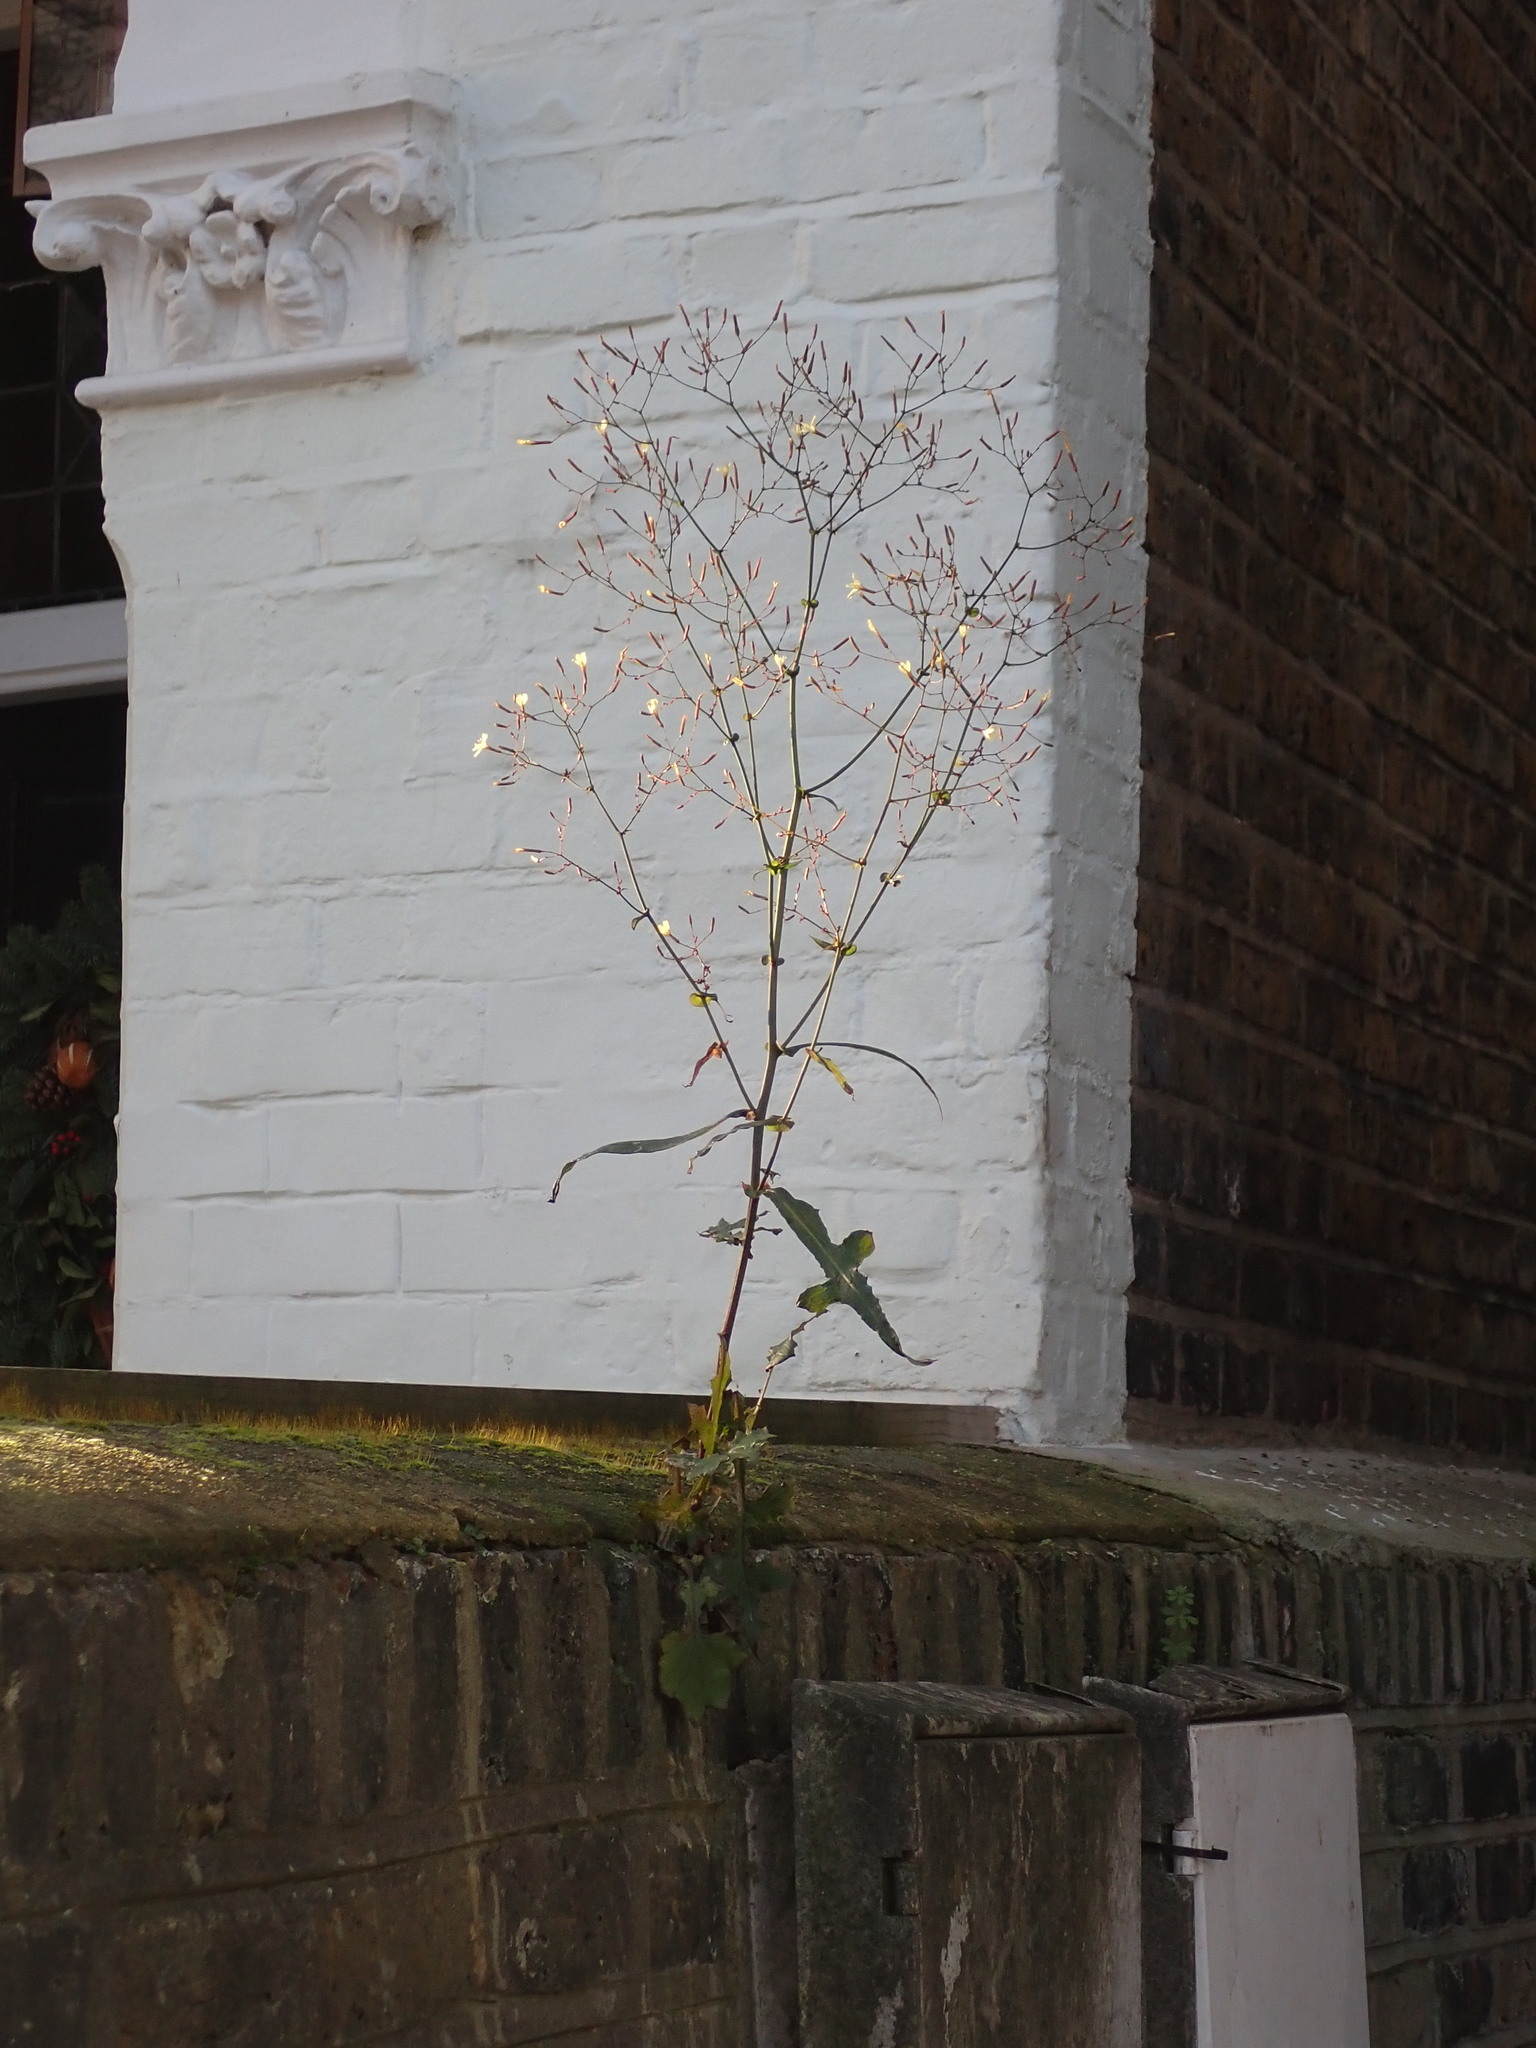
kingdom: Plantae
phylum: Tracheophyta
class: Magnoliopsida
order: Asterales
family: Asteraceae
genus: Mycelis
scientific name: Mycelis muralis
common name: Wall lettuce
